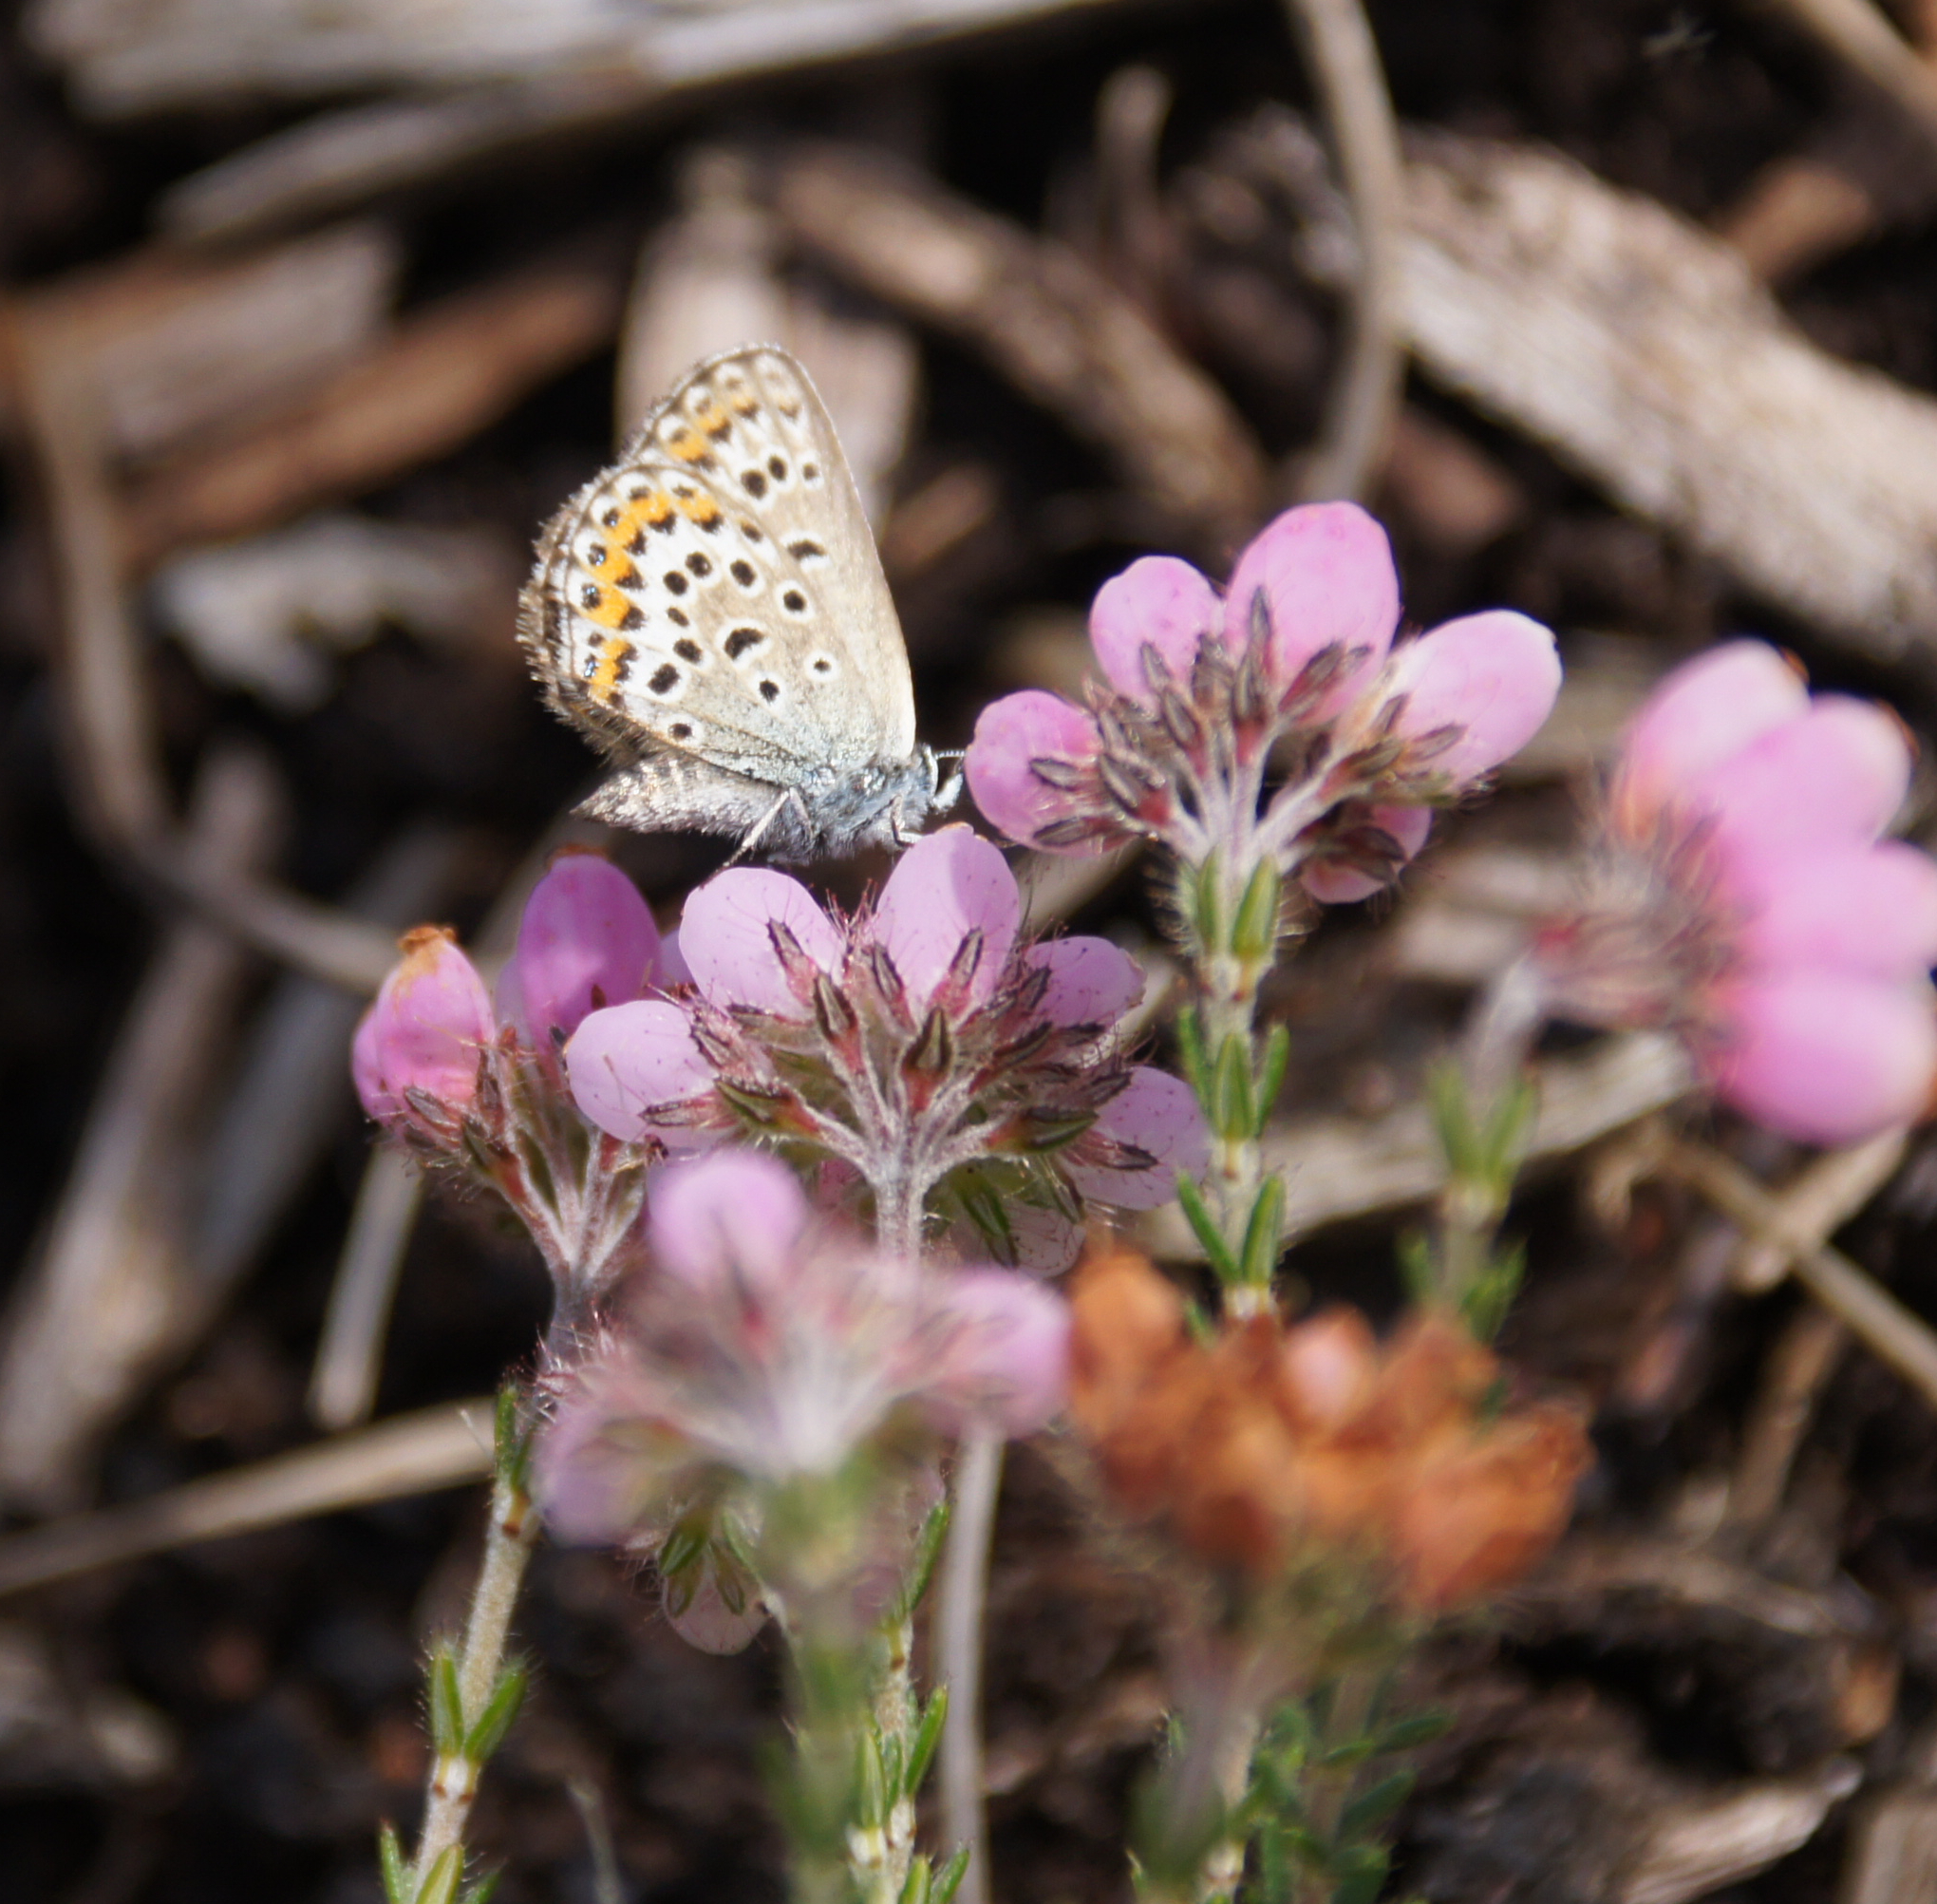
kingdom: Animalia
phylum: Arthropoda
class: Insecta
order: Lepidoptera
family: Lycaenidae
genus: Plebejus
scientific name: Plebejus argus
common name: Silver-studded blue
